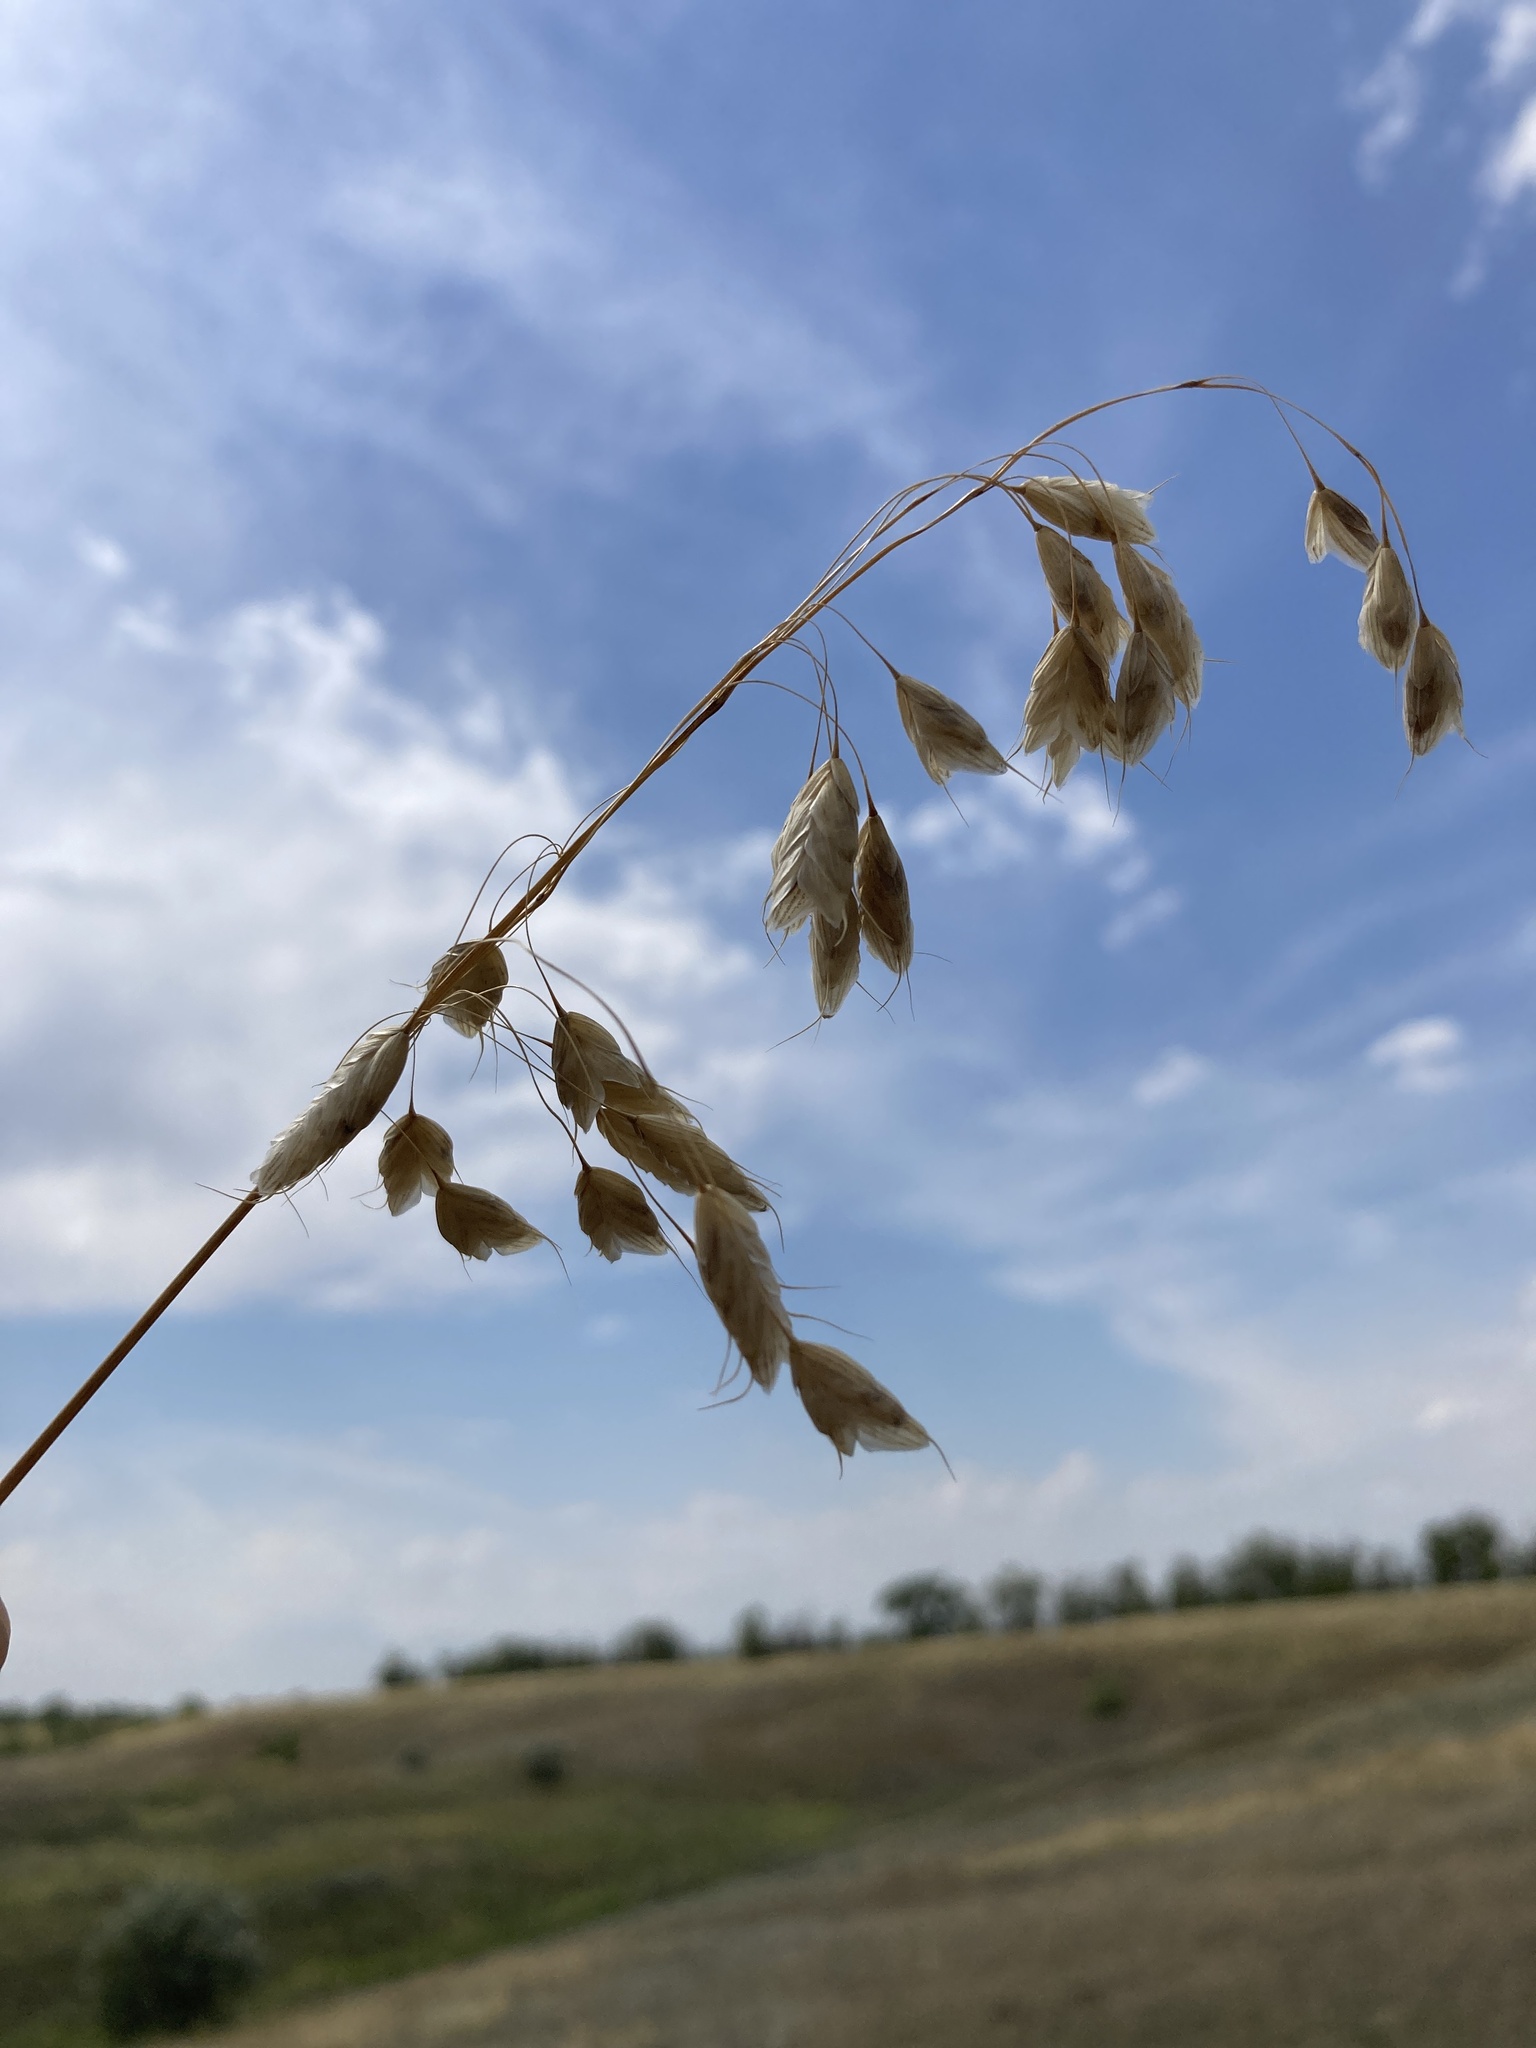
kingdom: Plantae
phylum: Tracheophyta
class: Liliopsida
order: Poales
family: Poaceae
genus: Bromus
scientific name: Bromus squarrosus
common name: Corn brome
